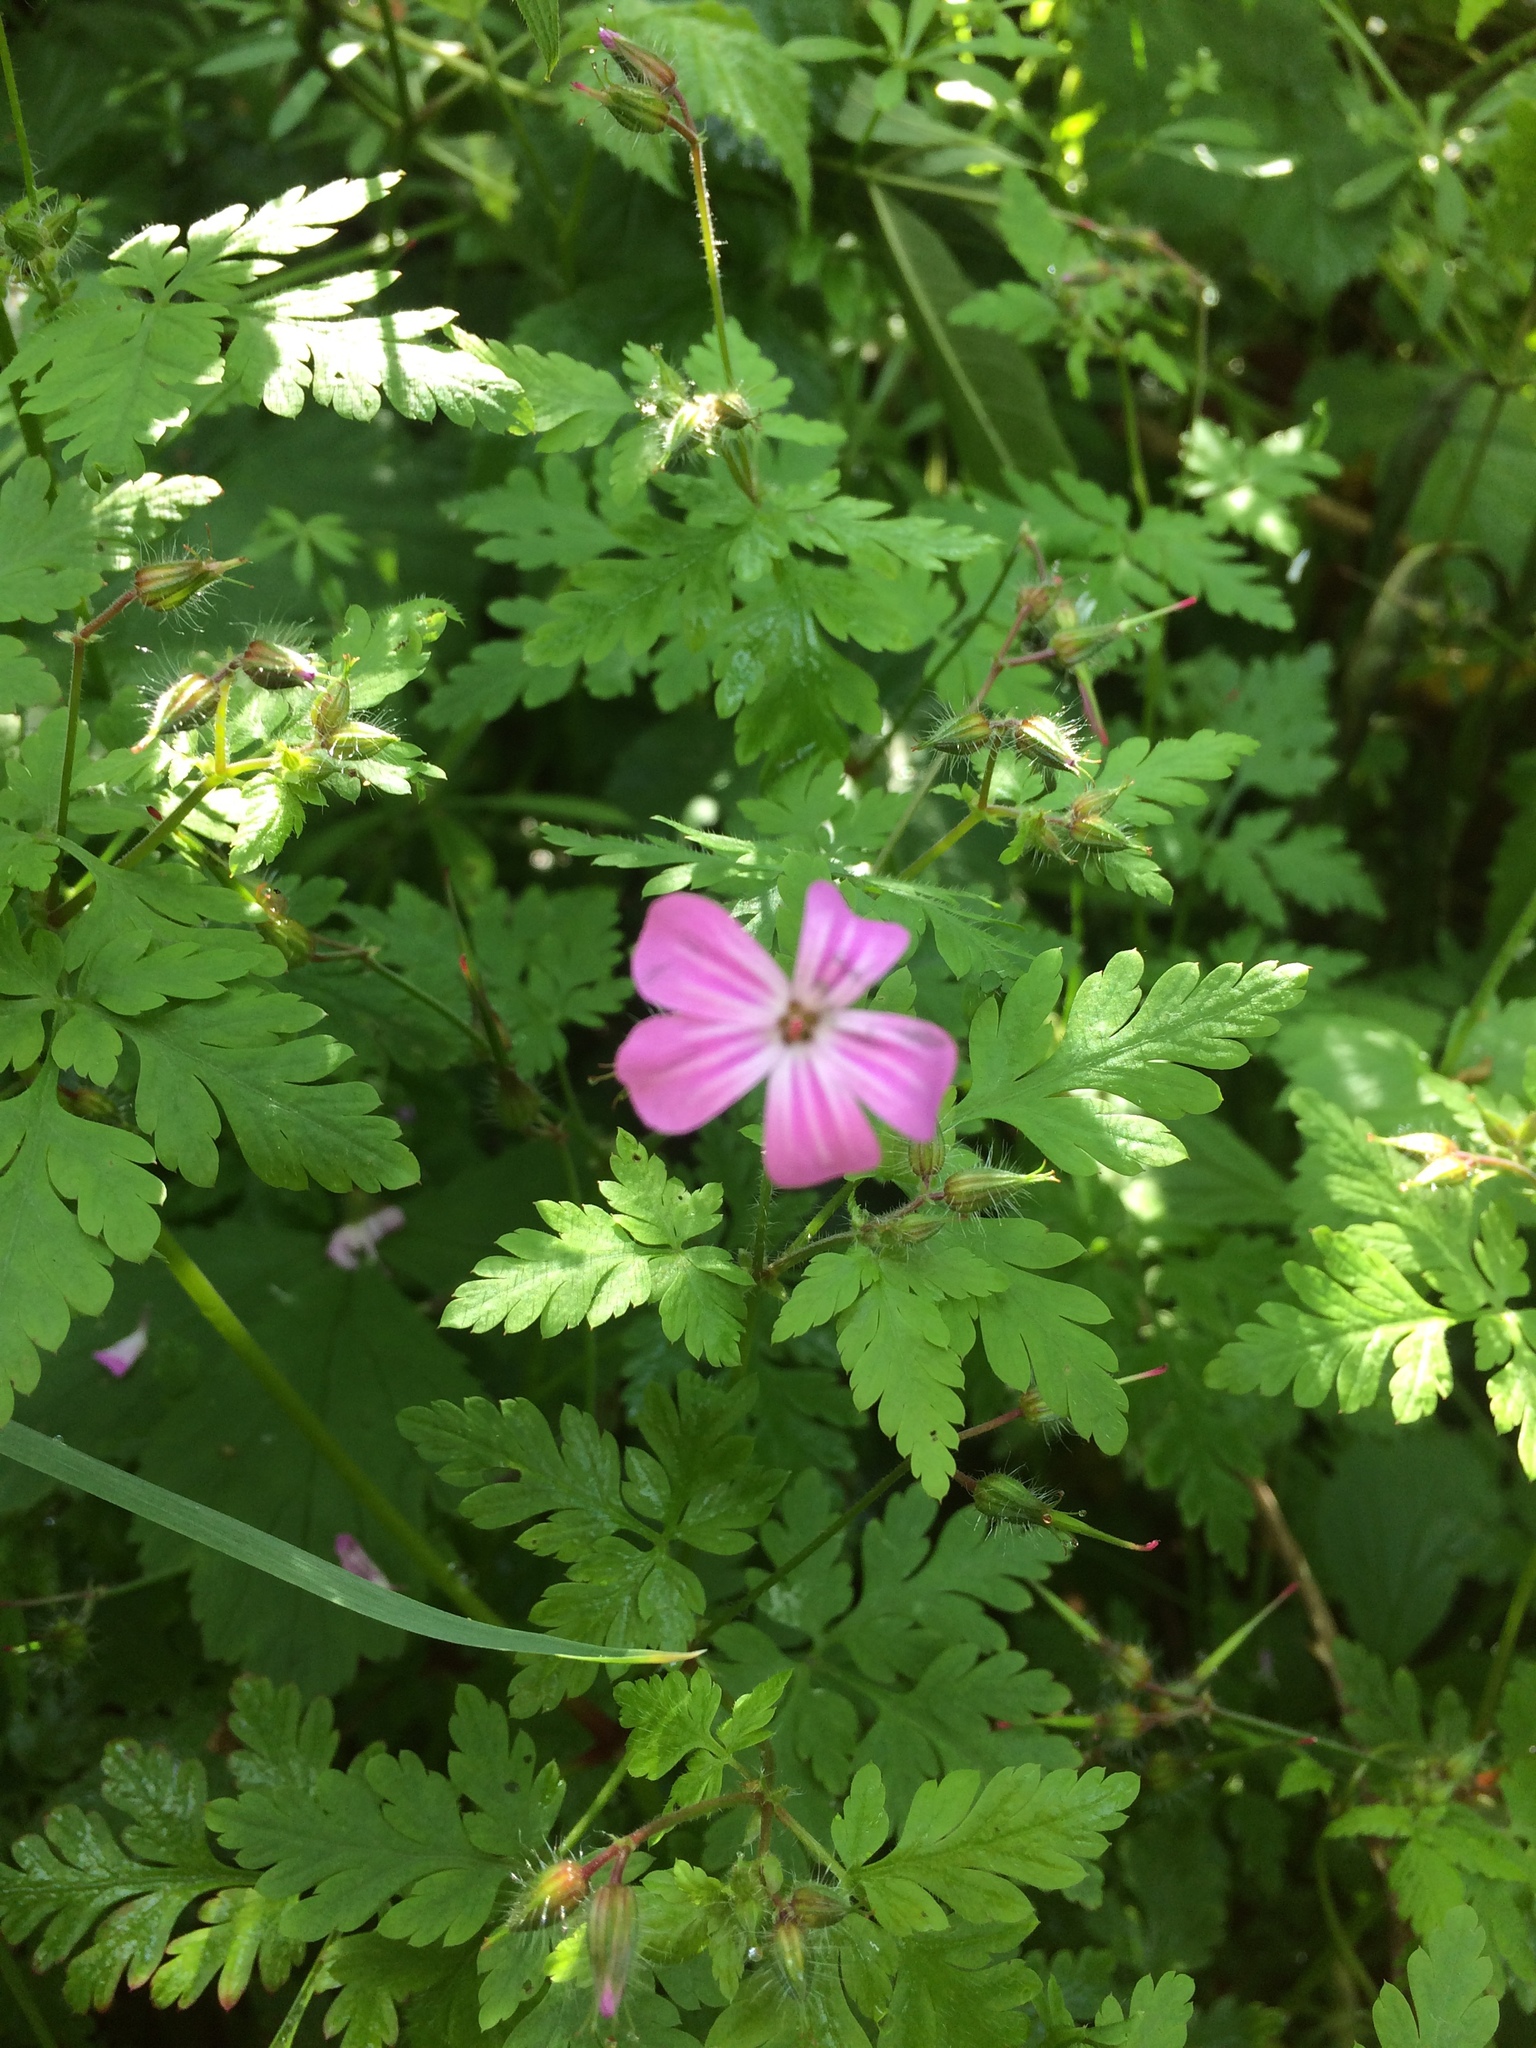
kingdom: Plantae
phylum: Tracheophyta
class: Magnoliopsida
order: Geraniales
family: Geraniaceae
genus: Geranium
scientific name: Geranium robertianum
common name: Herb-robert
